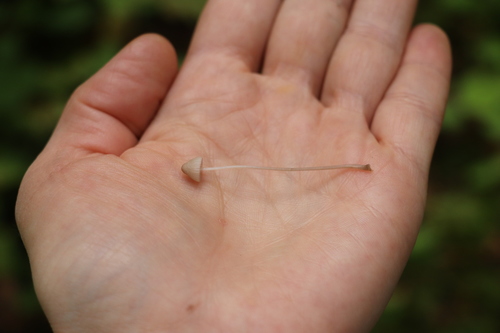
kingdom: Fungi
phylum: Basidiomycota
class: Agaricomycetes
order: Agaricales
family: Mycenaceae
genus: Mycena
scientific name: Mycena rubromarginata
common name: Red edge bonnet
